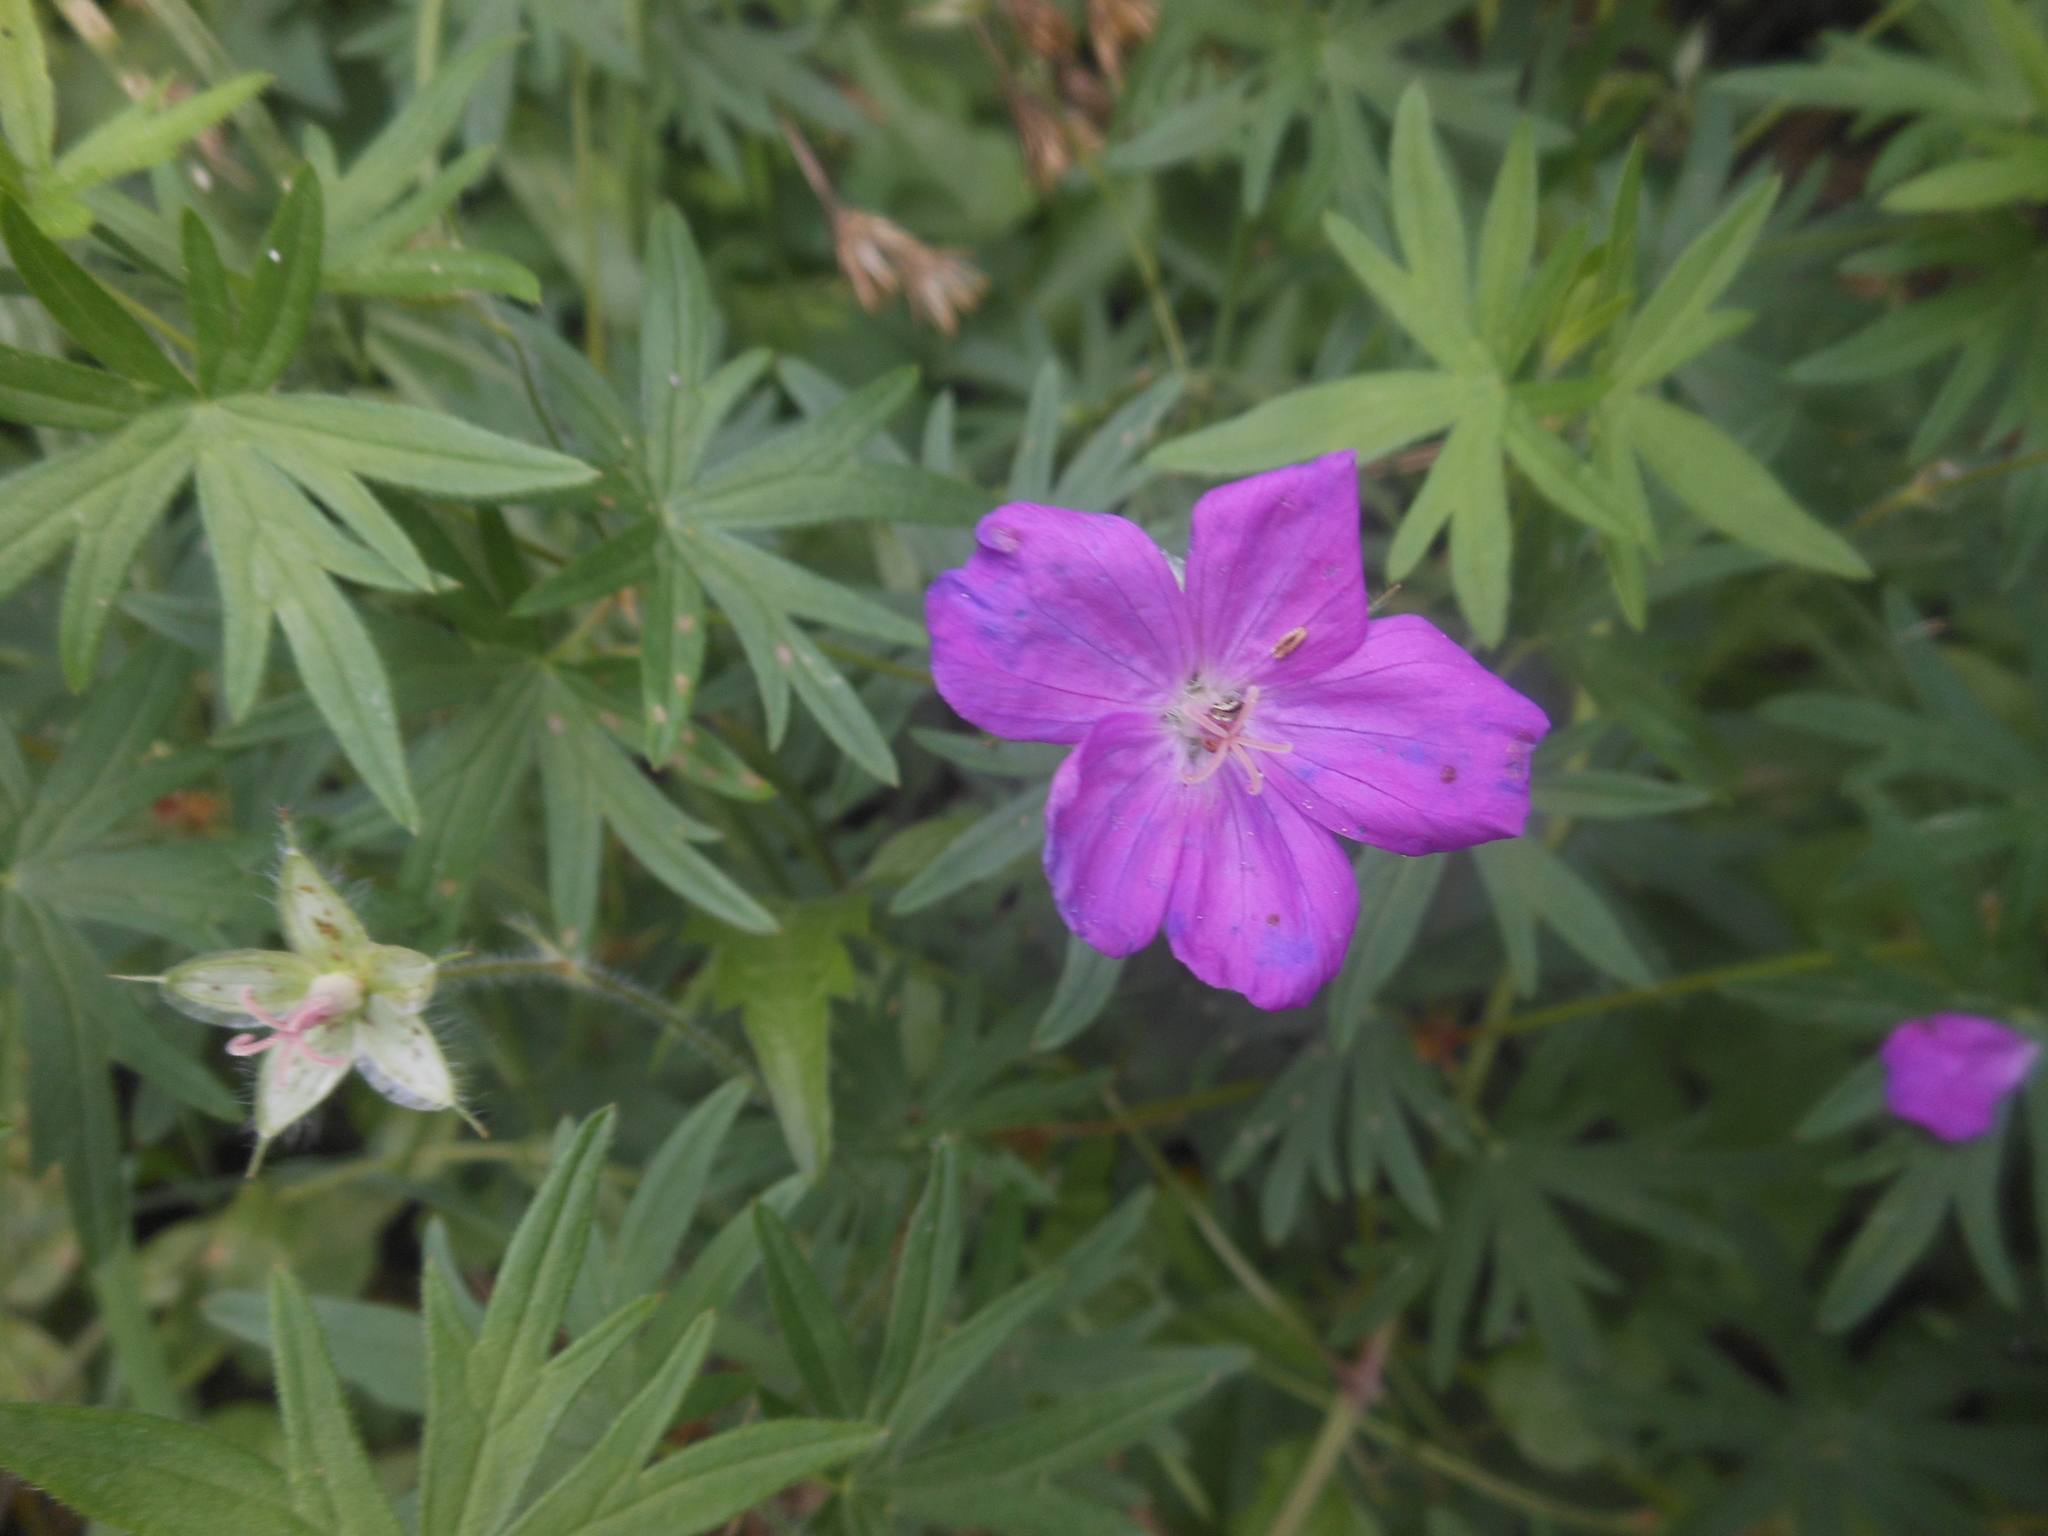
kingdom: Plantae
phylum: Tracheophyta
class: Magnoliopsida
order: Geraniales
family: Geraniaceae
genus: Geranium
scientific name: Geranium sanguineum
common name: Bloody crane's-bill
